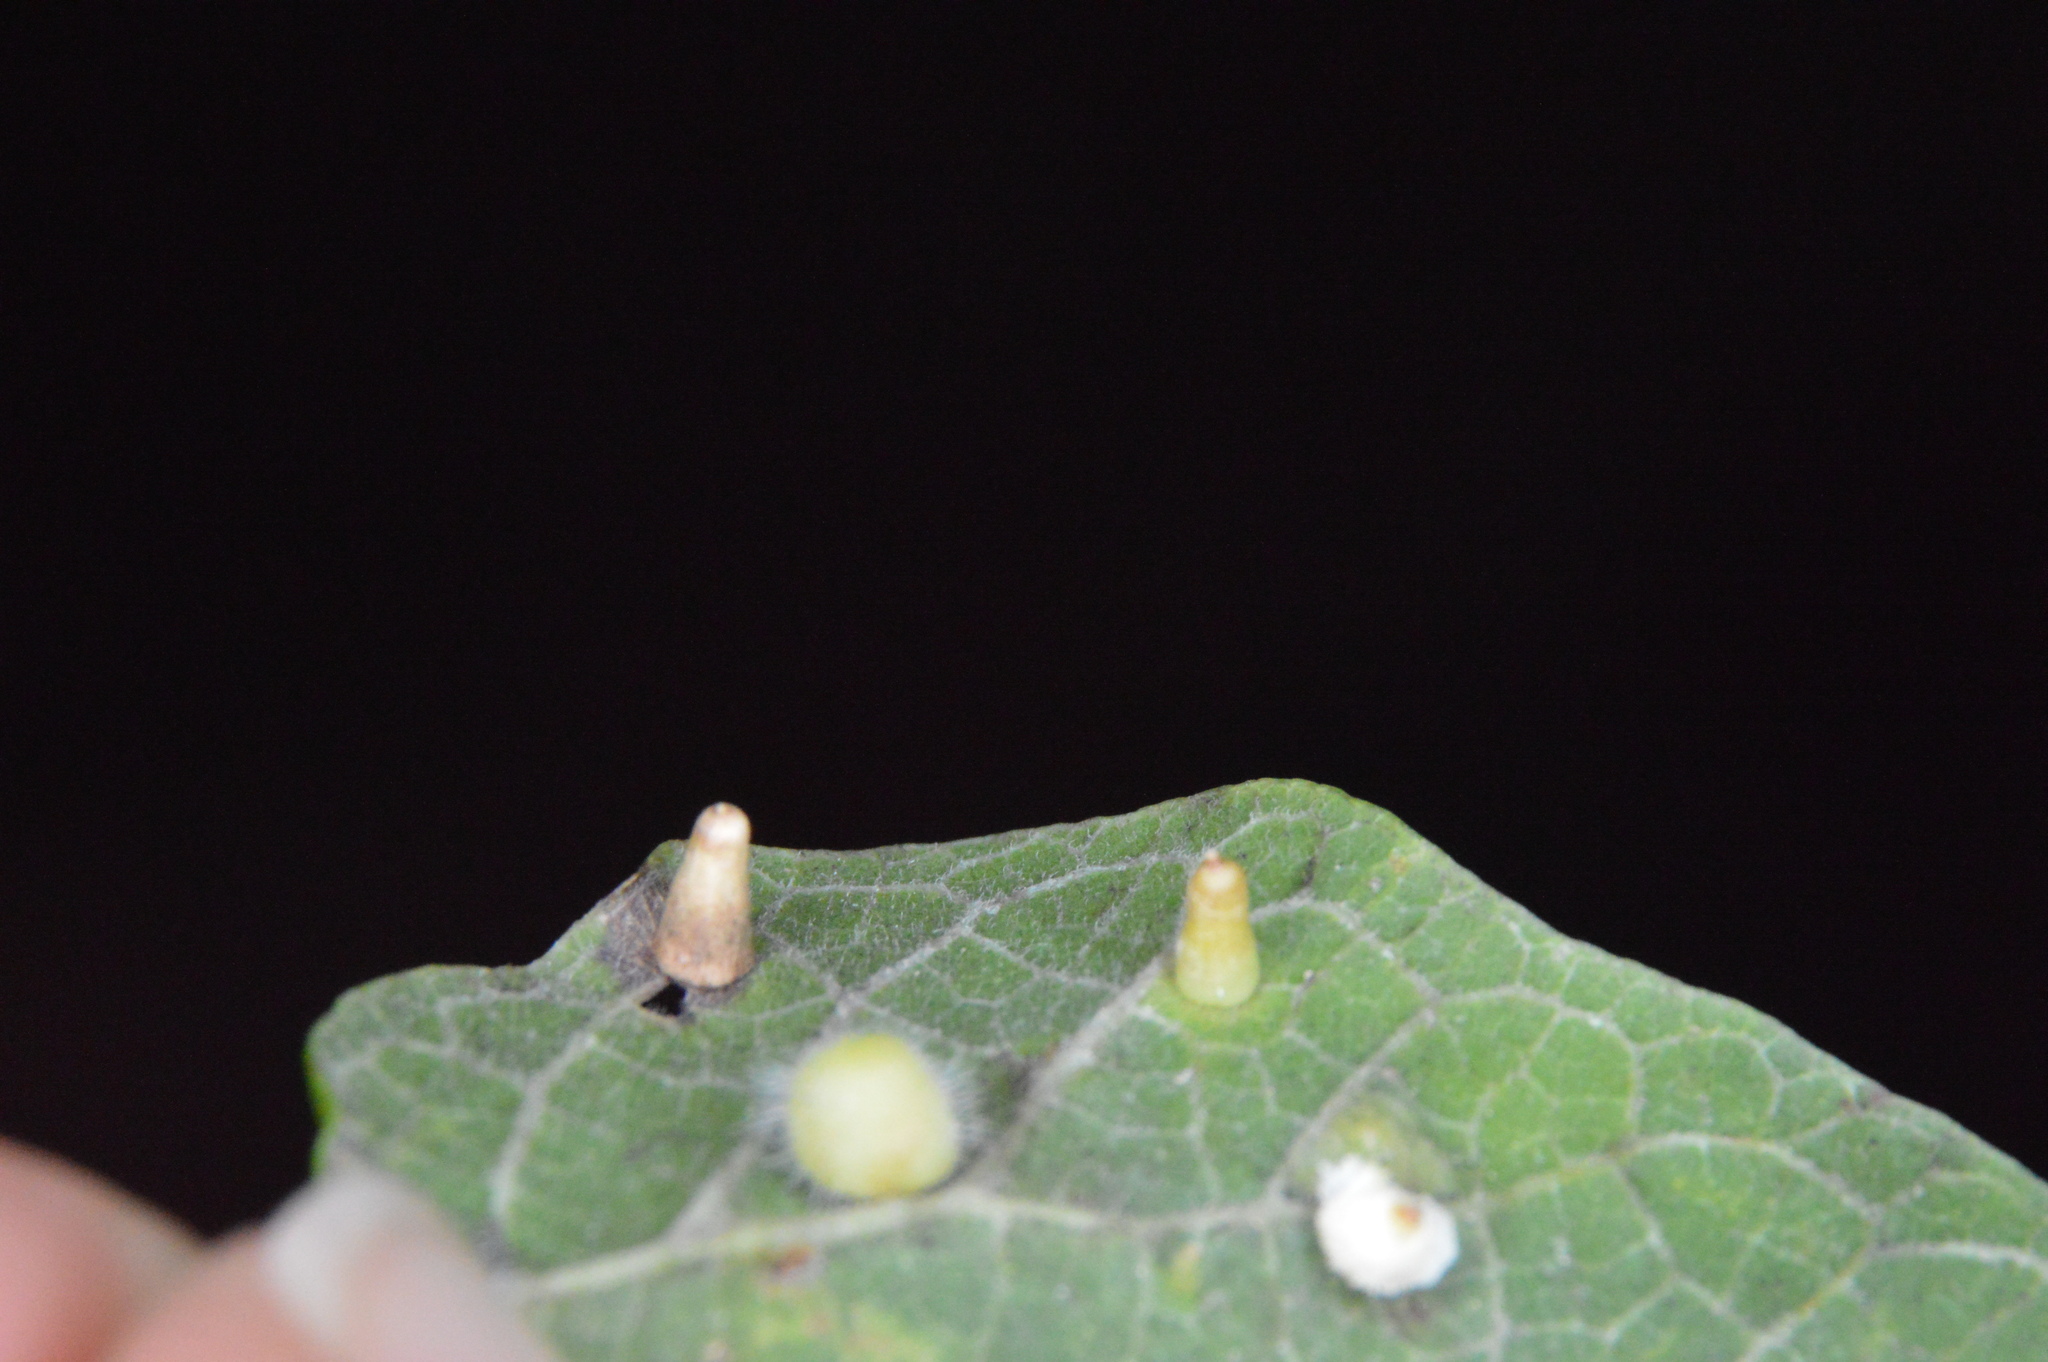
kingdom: Animalia
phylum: Arthropoda
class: Insecta
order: Diptera
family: Cecidomyiidae
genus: Celticecis
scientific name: Celticecis aciculata
